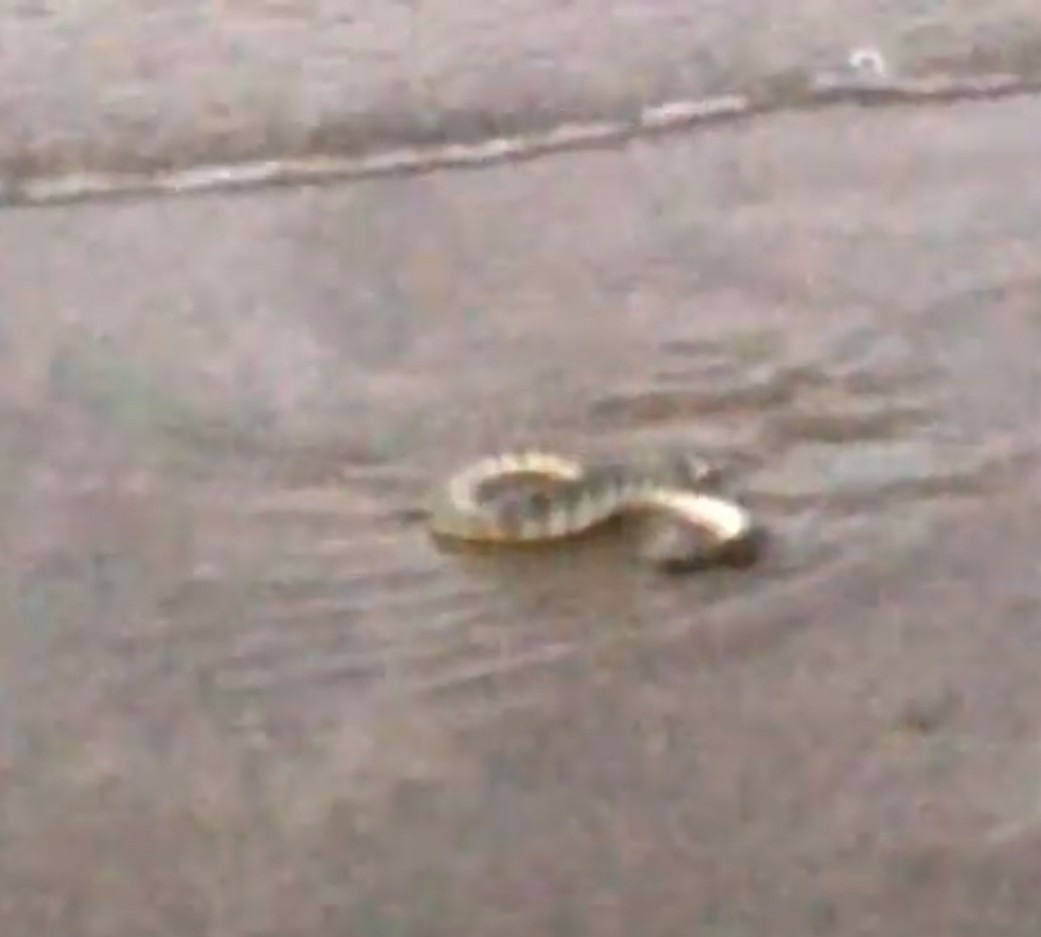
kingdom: Animalia
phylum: Chordata
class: Squamata
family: Elapidae
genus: Hydrophis
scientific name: Hydrophis schistosus
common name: Hook-nosed sea snake
